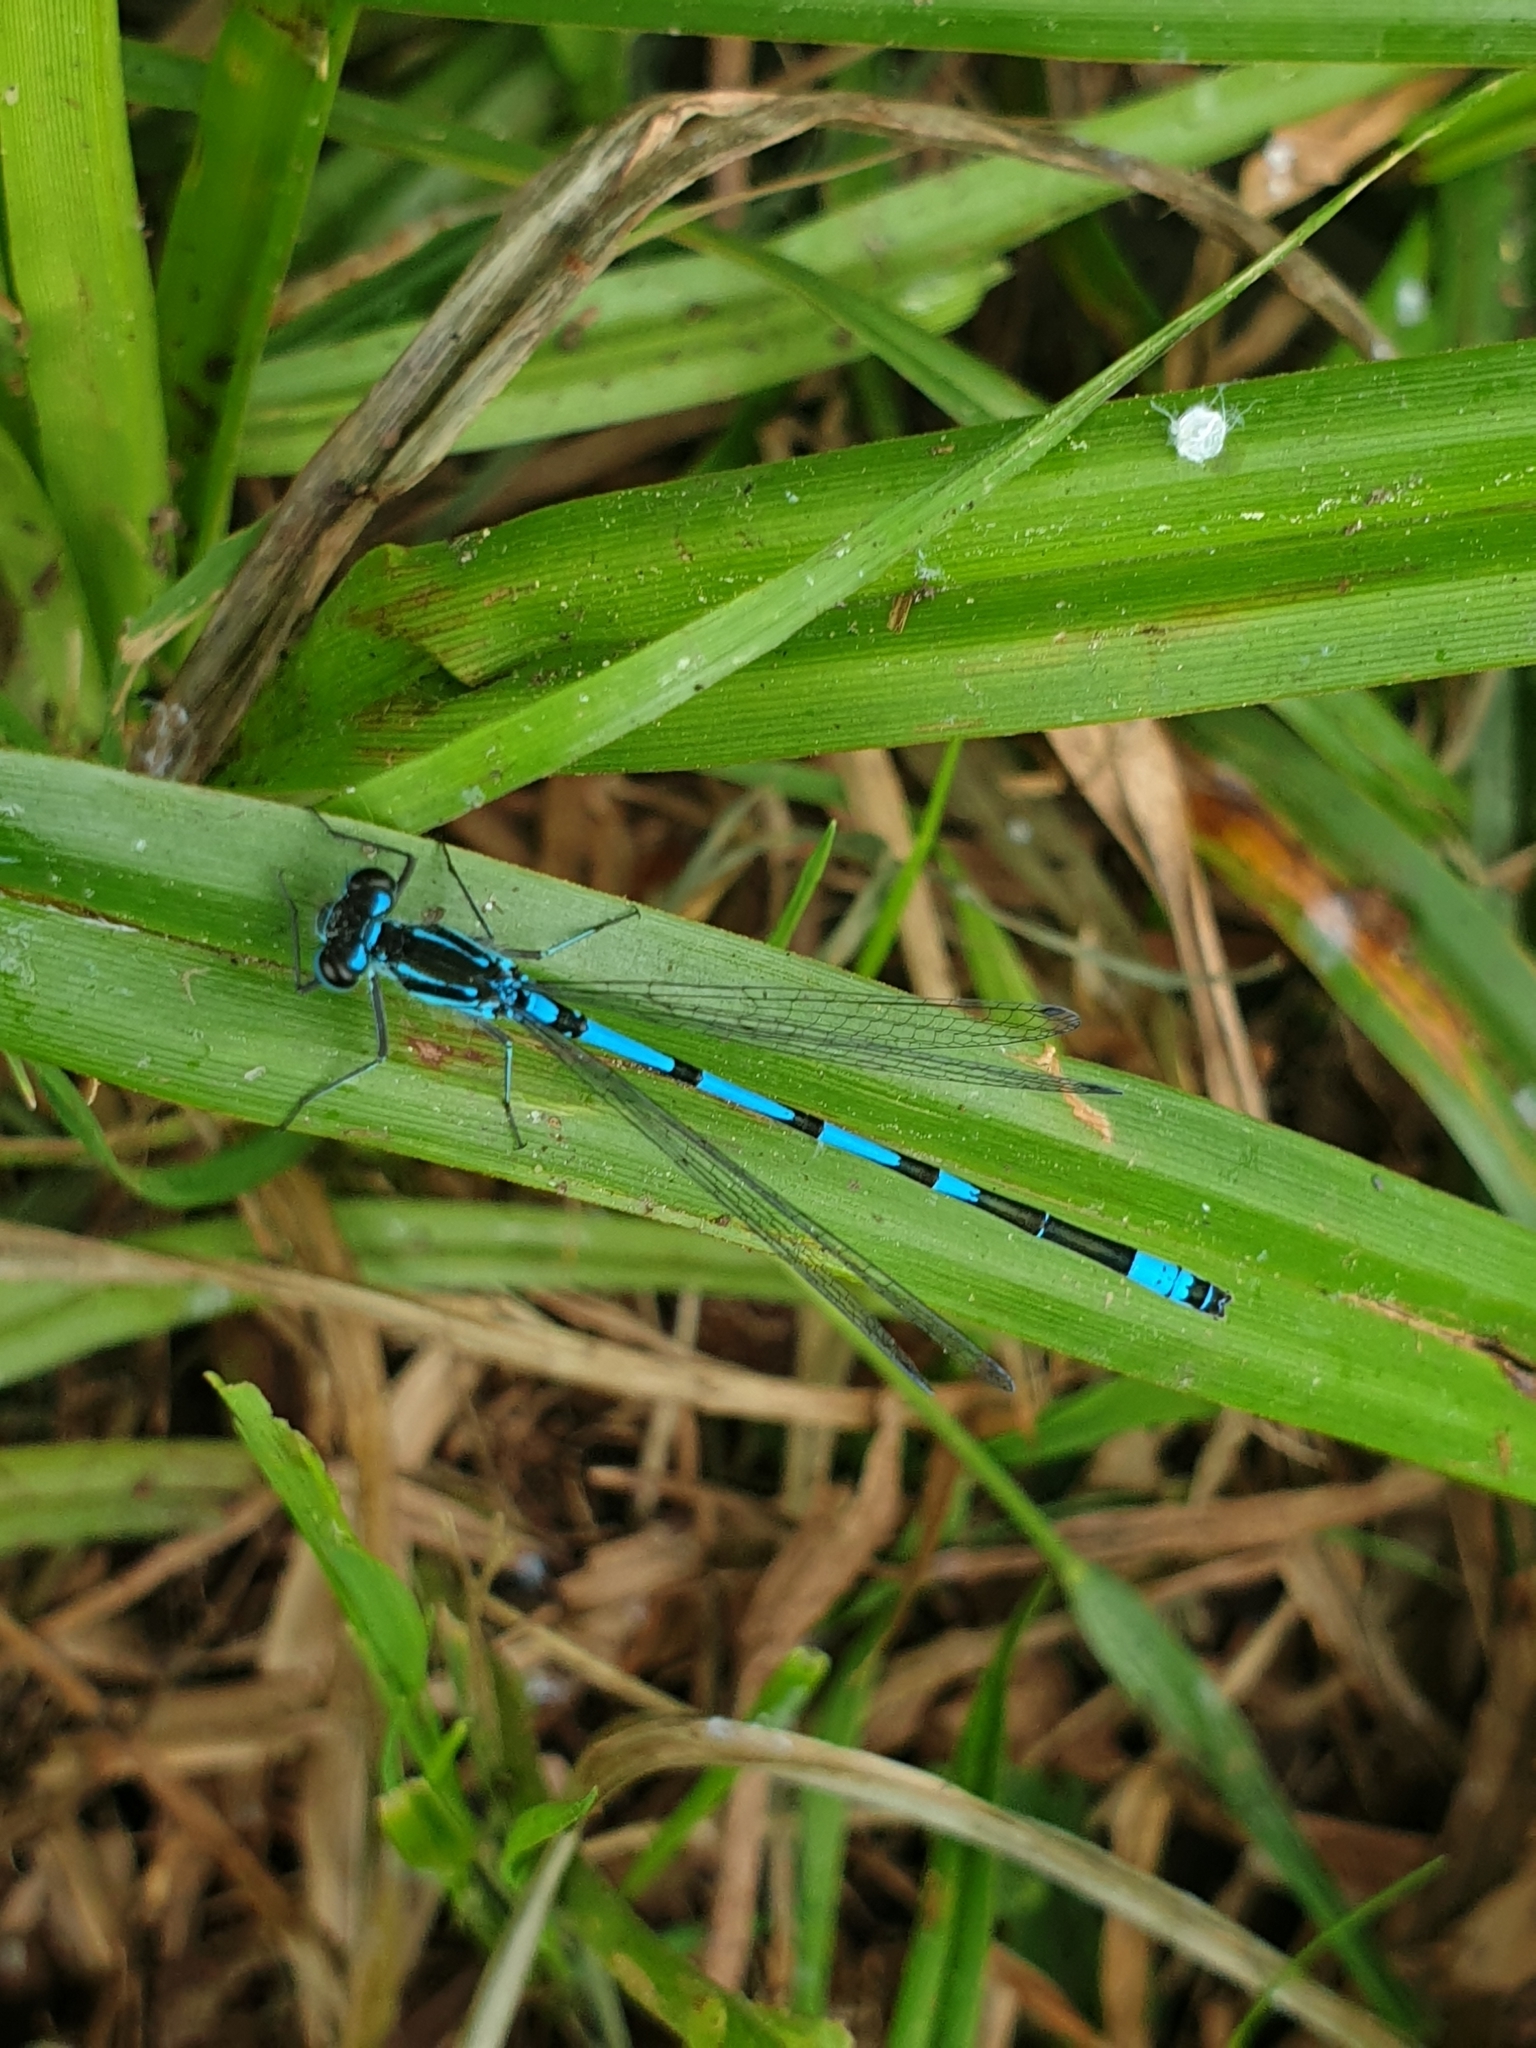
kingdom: Animalia
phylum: Arthropoda
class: Insecta
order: Odonata
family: Coenagrionidae
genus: Coenagrion
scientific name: Coenagrion pulchellum
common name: Variable bluet
